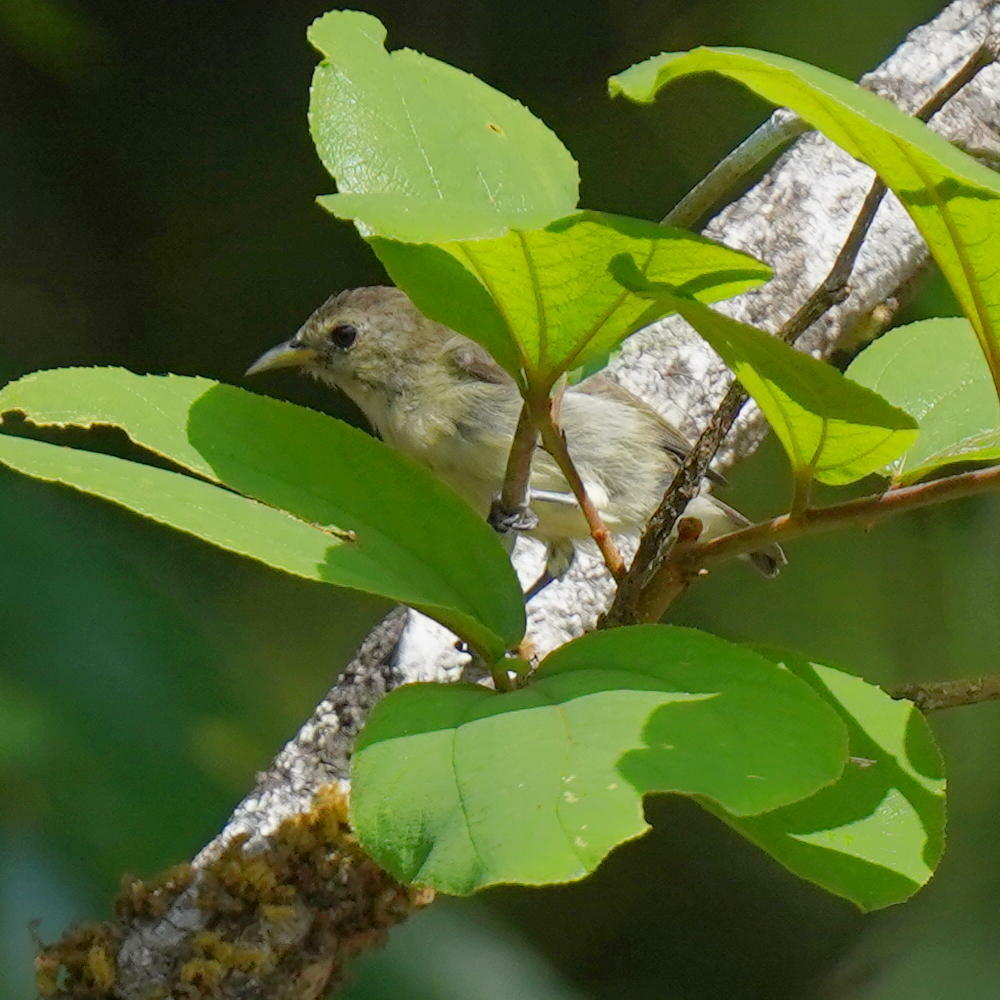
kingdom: Animalia
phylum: Chordata
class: Aves
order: Passeriformes
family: Dicaeidae
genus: Dicaeum
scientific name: Dicaeum erythrorhynchos
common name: Pale-billed flowerpecker
